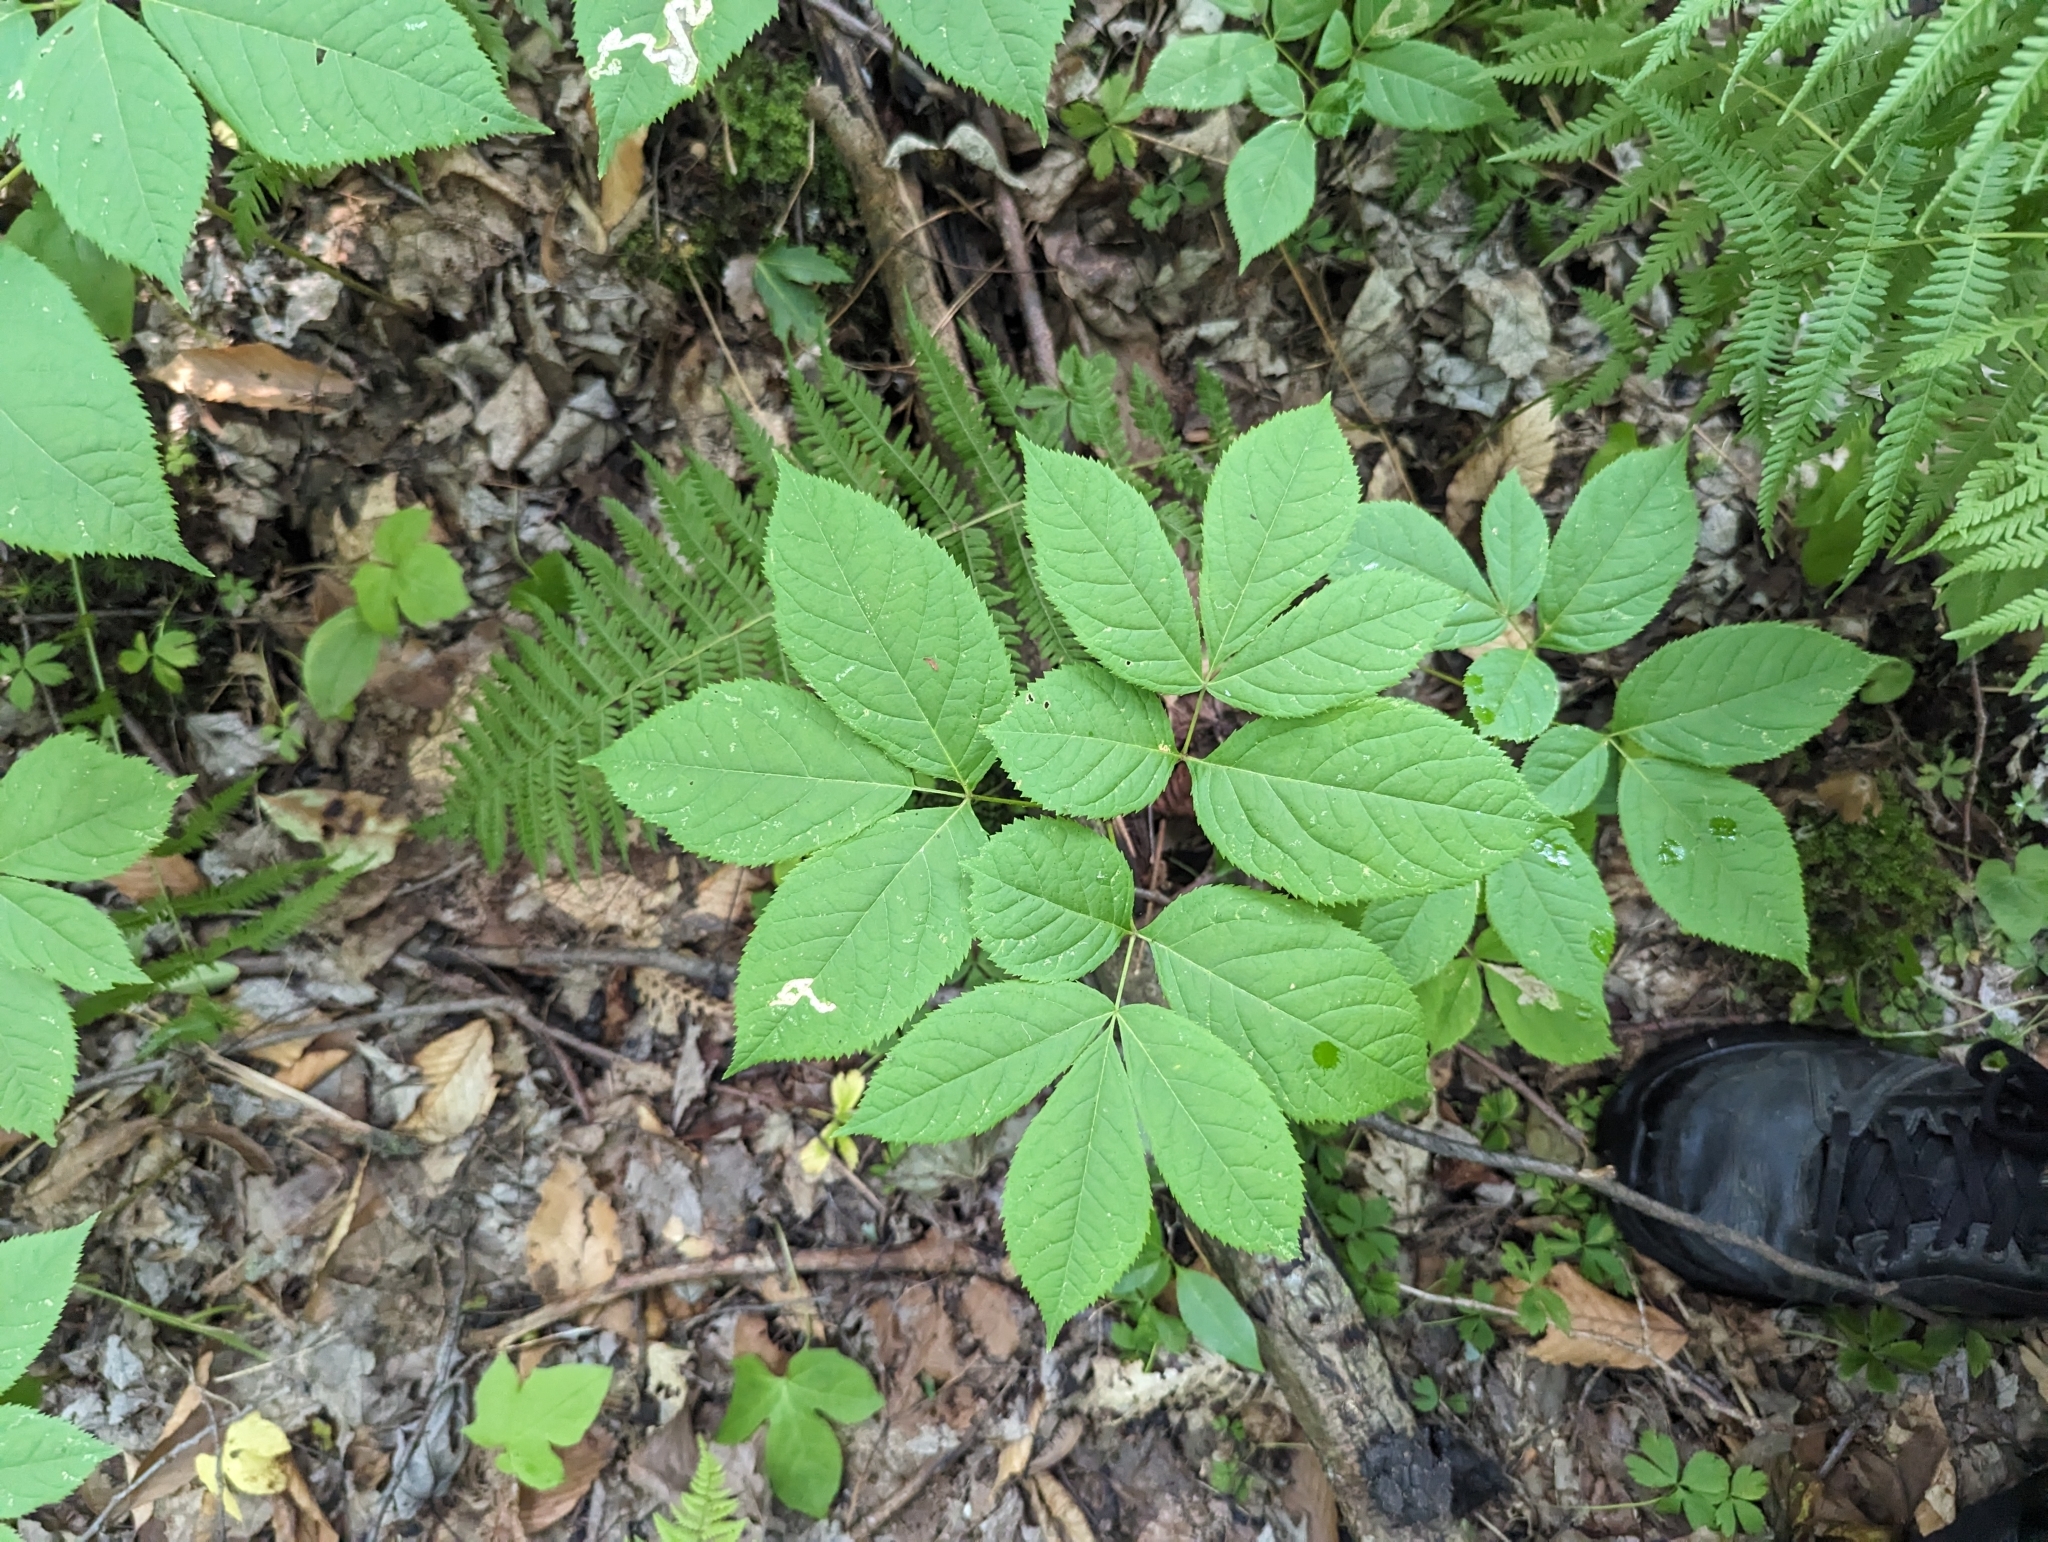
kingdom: Plantae
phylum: Tracheophyta
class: Magnoliopsida
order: Apiales
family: Araliaceae
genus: Aralia
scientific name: Aralia nudicaulis
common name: Wild sarsaparilla
